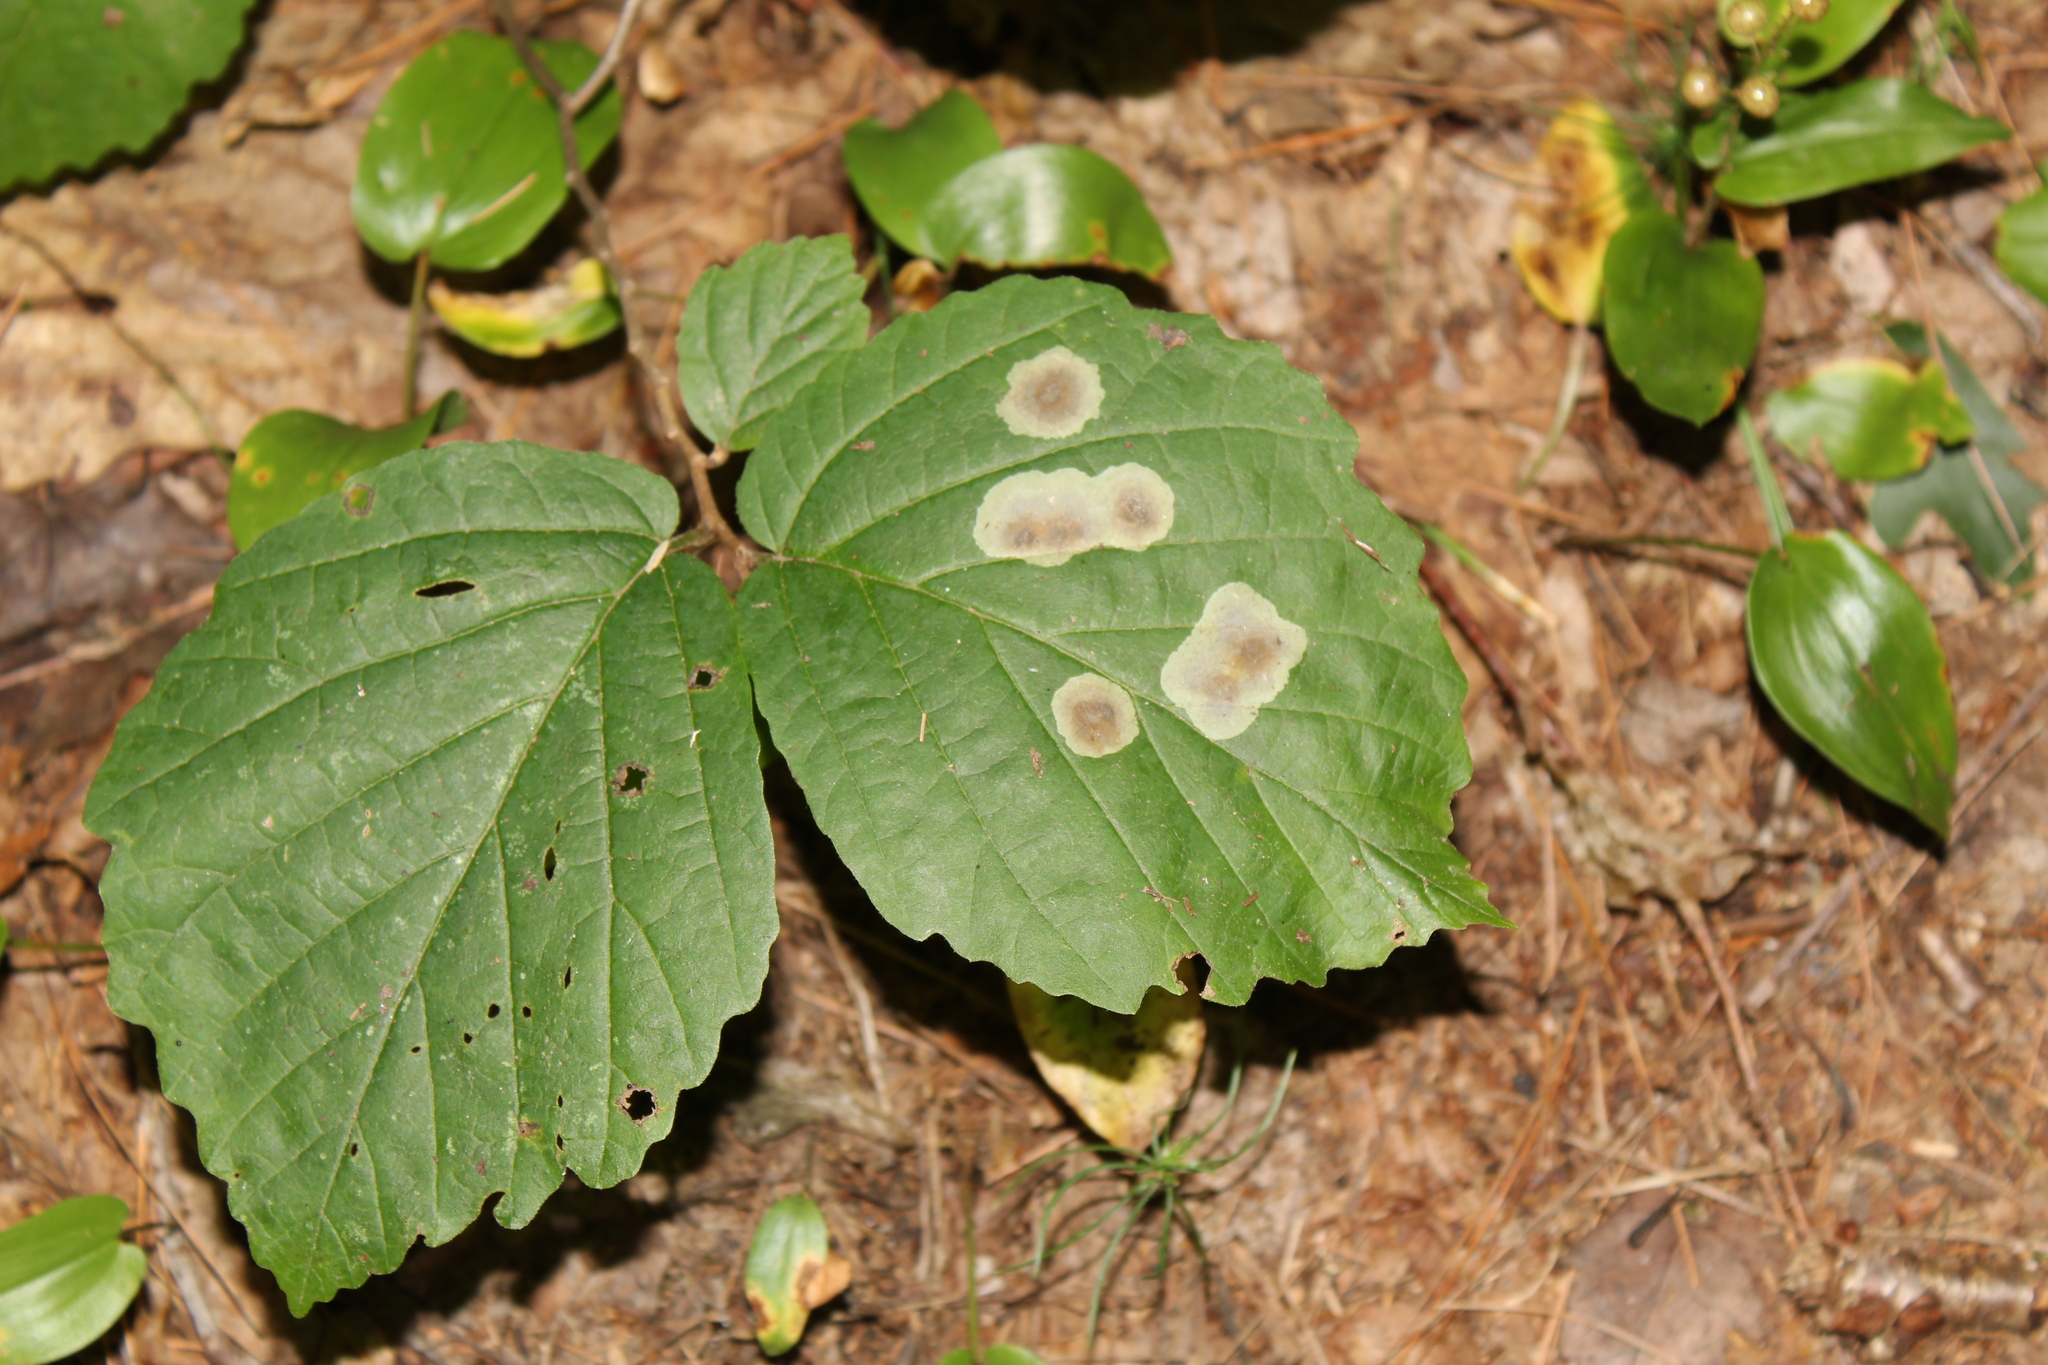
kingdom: Animalia
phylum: Arthropoda
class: Insecta
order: Lepidoptera
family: Gracillariidae
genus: Cameraria
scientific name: Cameraria hamameliella
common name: Witchhazel leafminer
